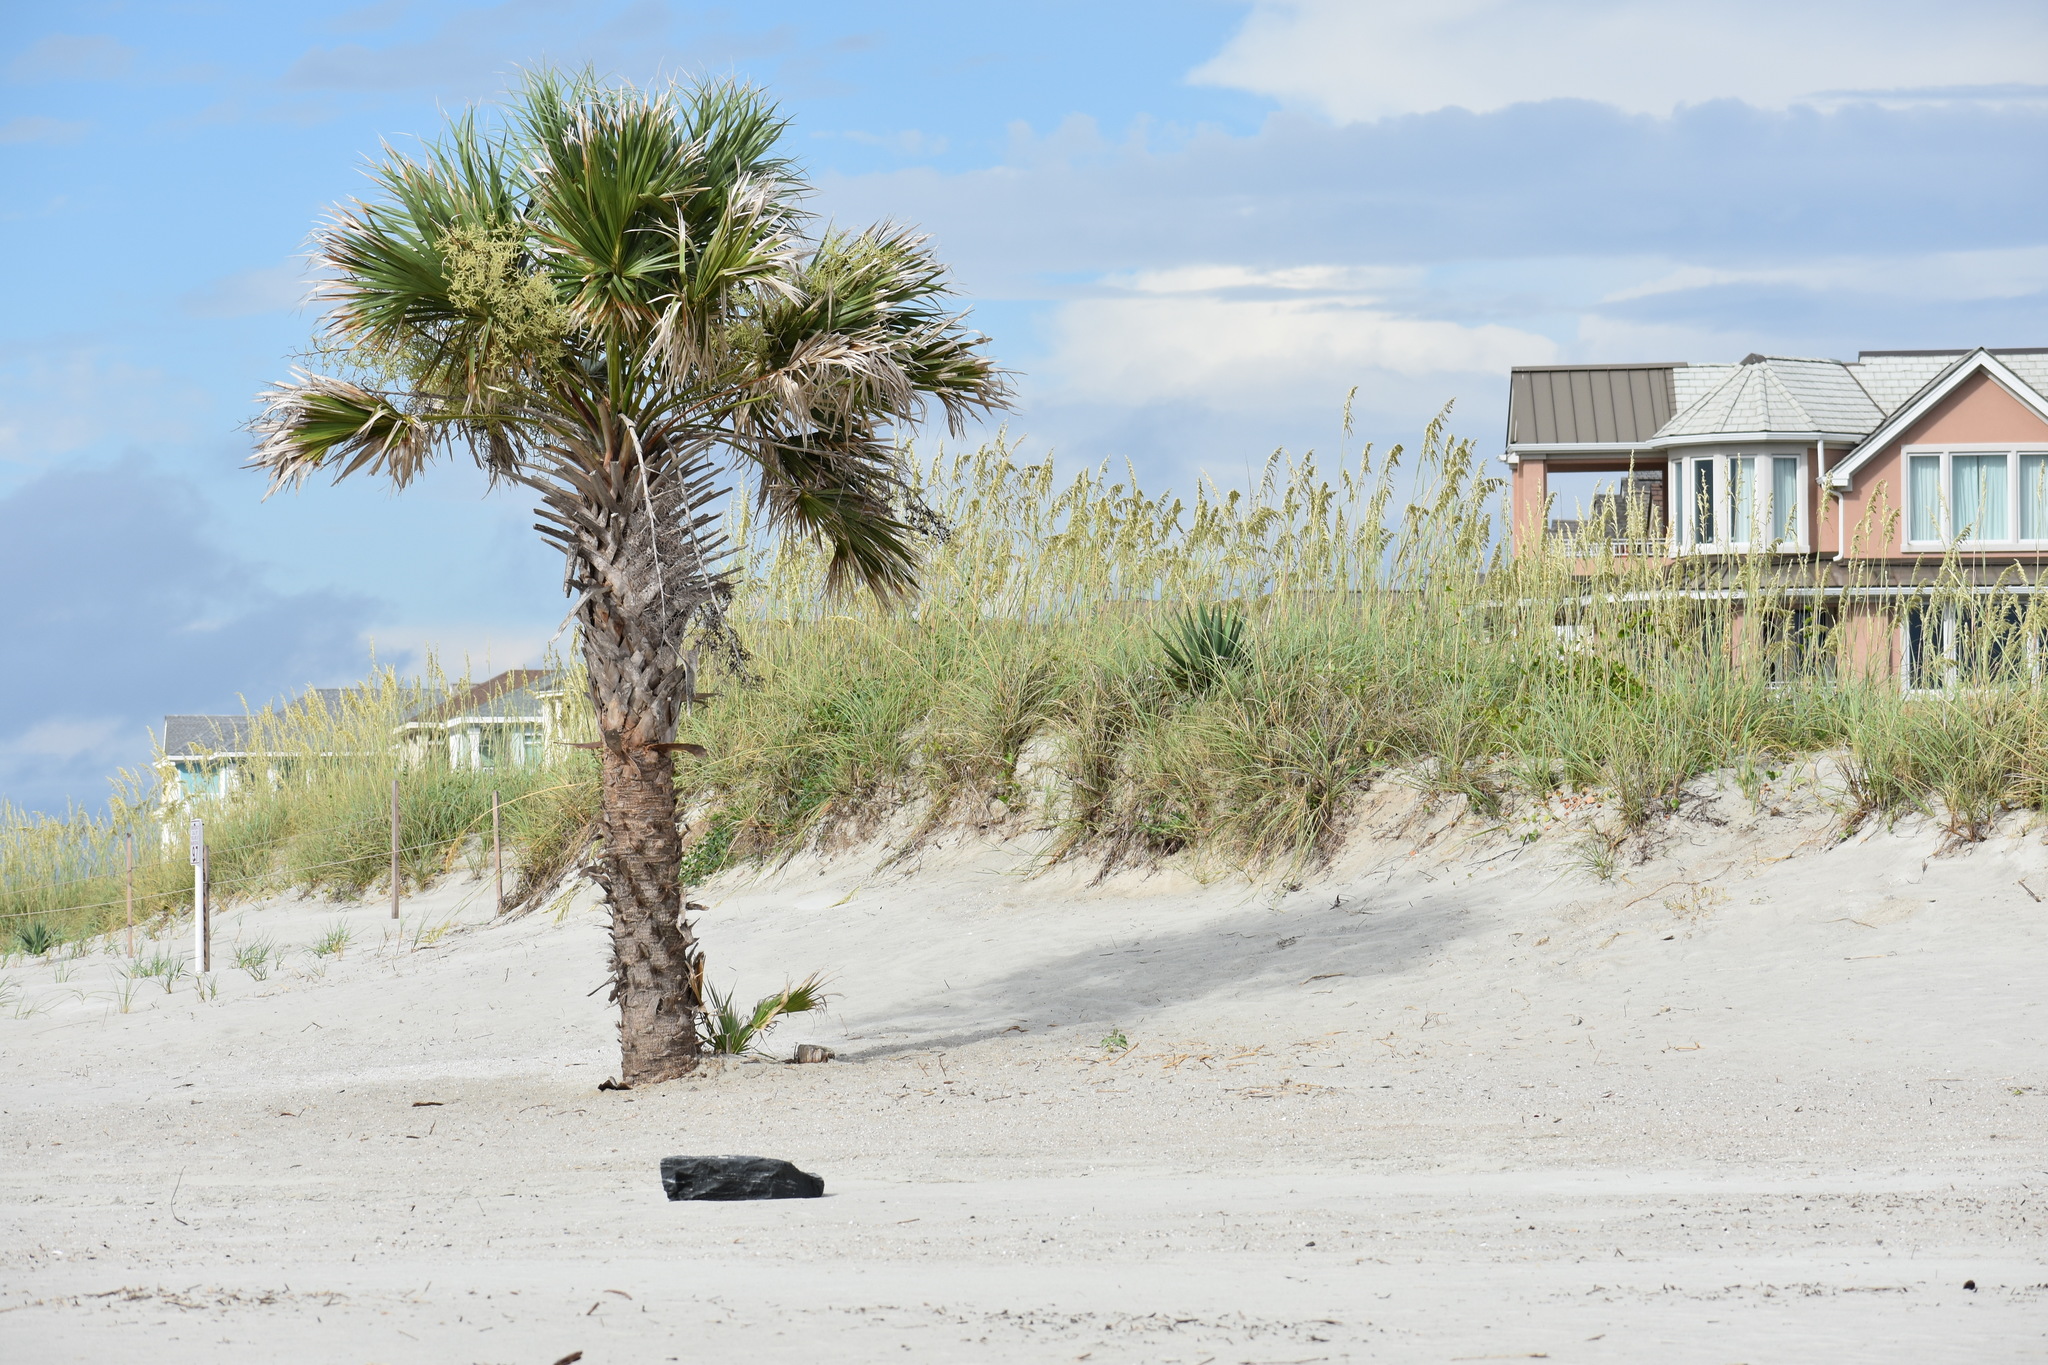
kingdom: Plantae
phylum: Tracheophyta
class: Liliopsida
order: Arecales
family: Arecaceae
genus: Sabal
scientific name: Sabal palmetto
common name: Blue palmetto
